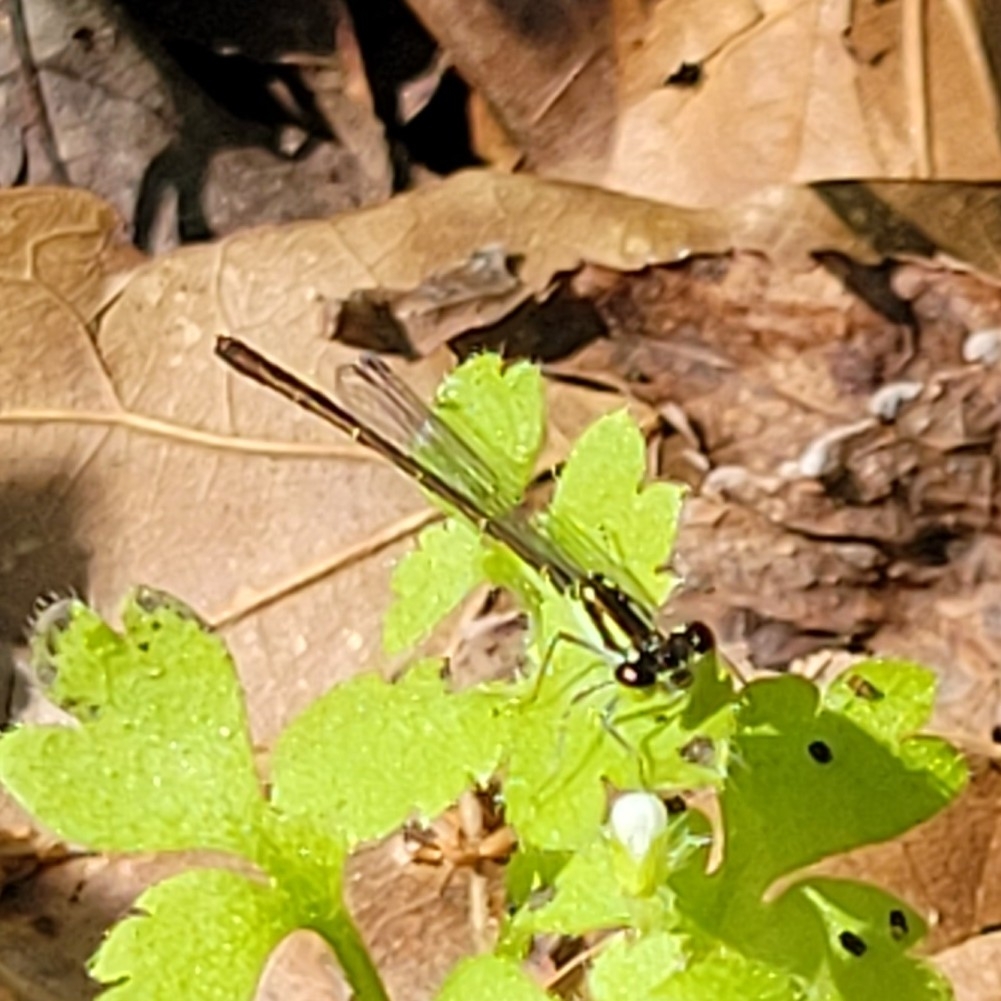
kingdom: Animalia
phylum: Arthropoda
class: Insecta
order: Odonata
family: Coenagrionidae
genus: Ischnura
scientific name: Ischnura posita
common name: Fragile forktail
